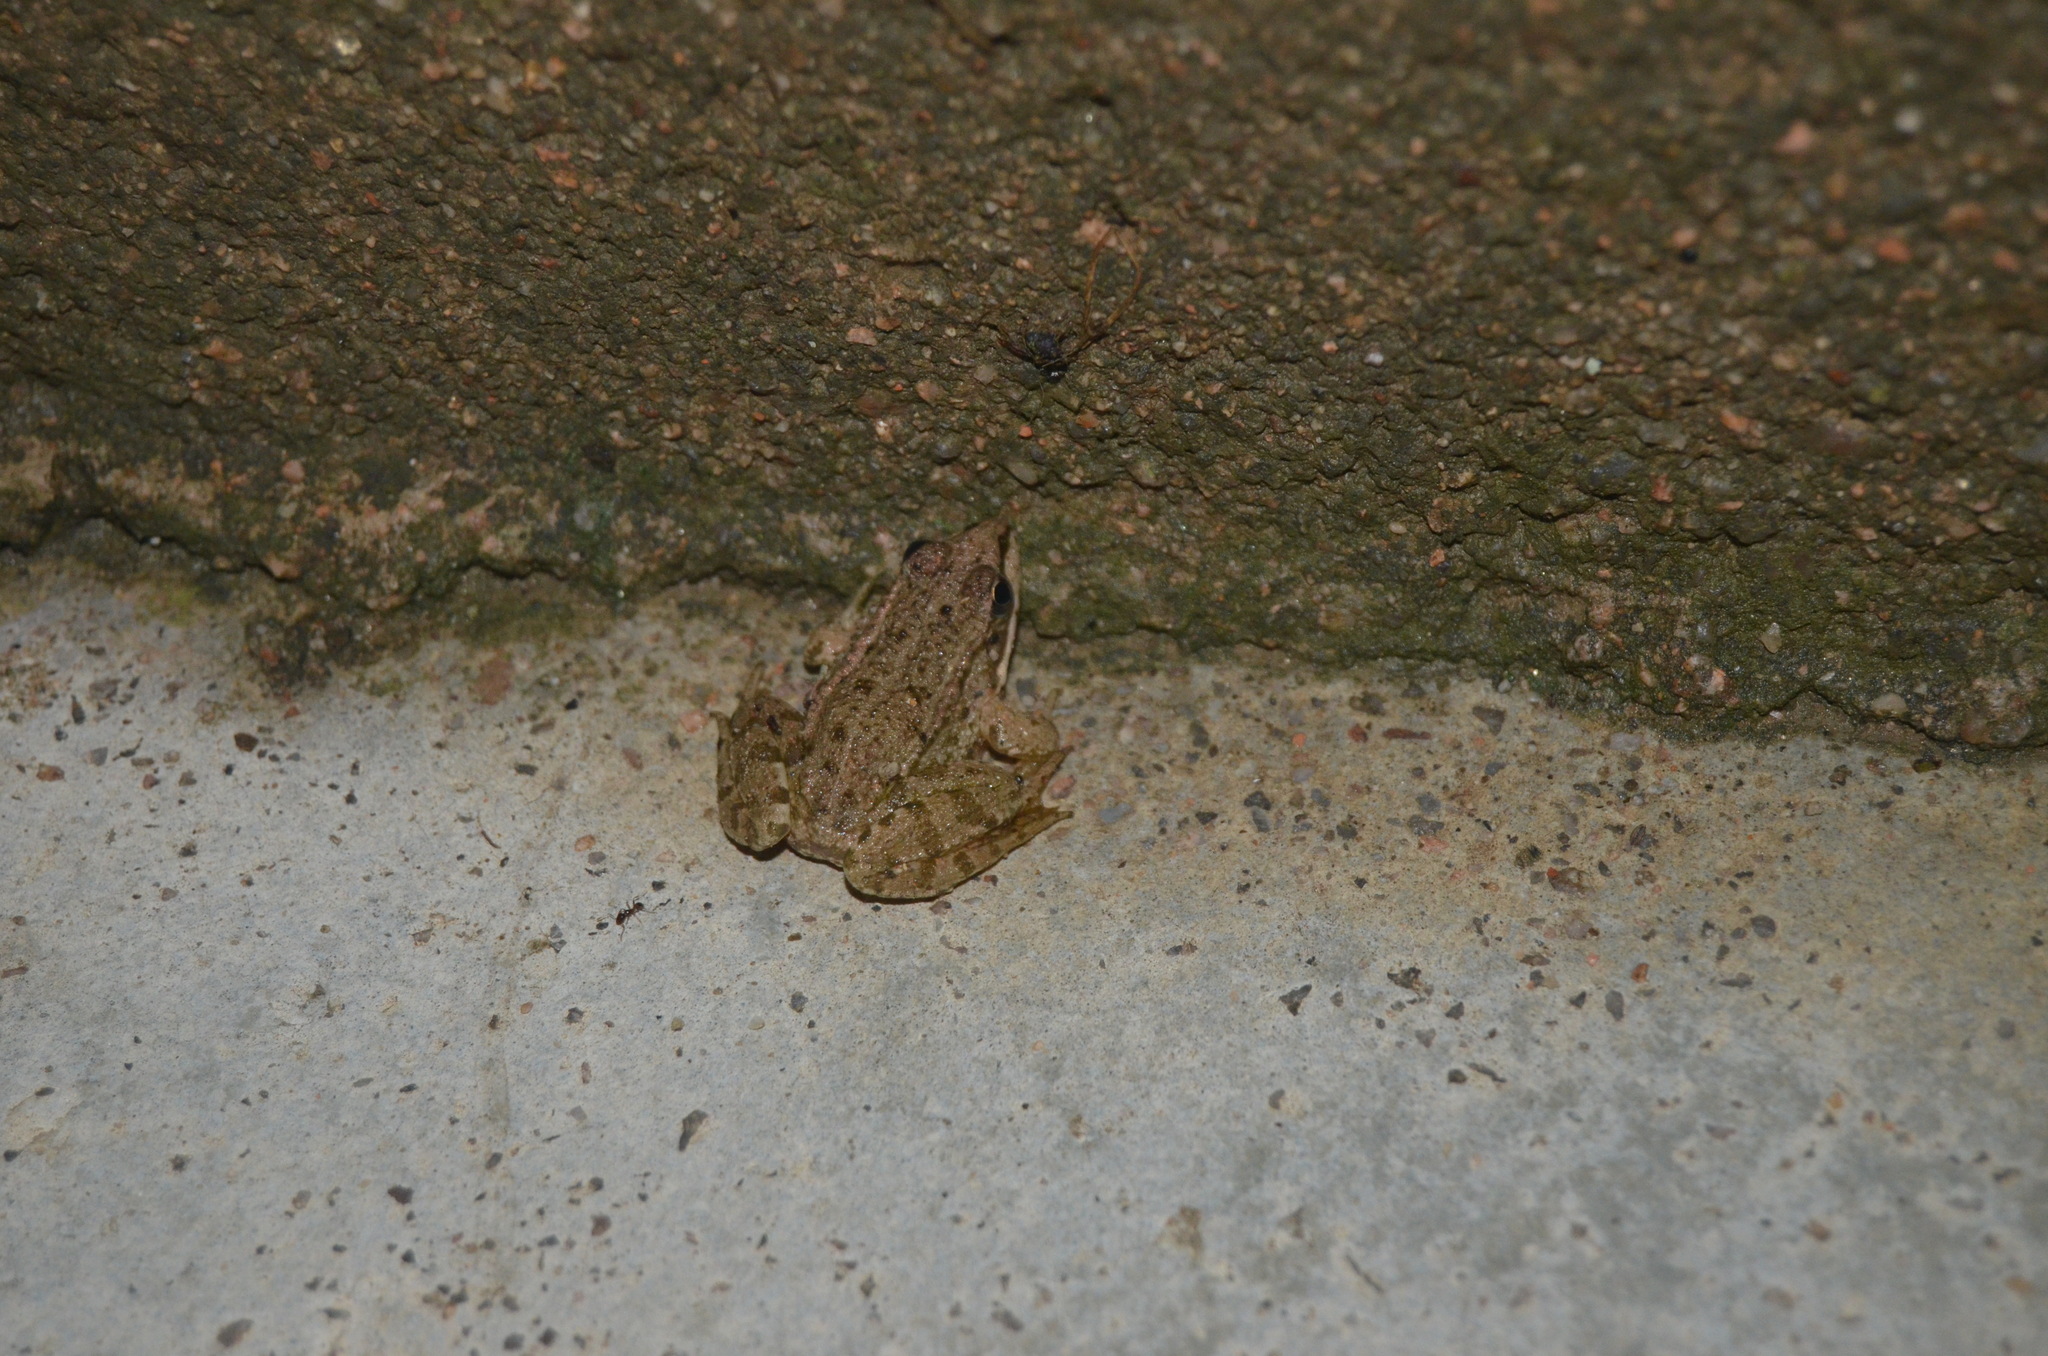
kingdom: Animalia
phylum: Chordata
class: Amphibia
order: Anura
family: Ranidae
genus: Pelophylax
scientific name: Pelophylax perezi
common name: Perez's frog
